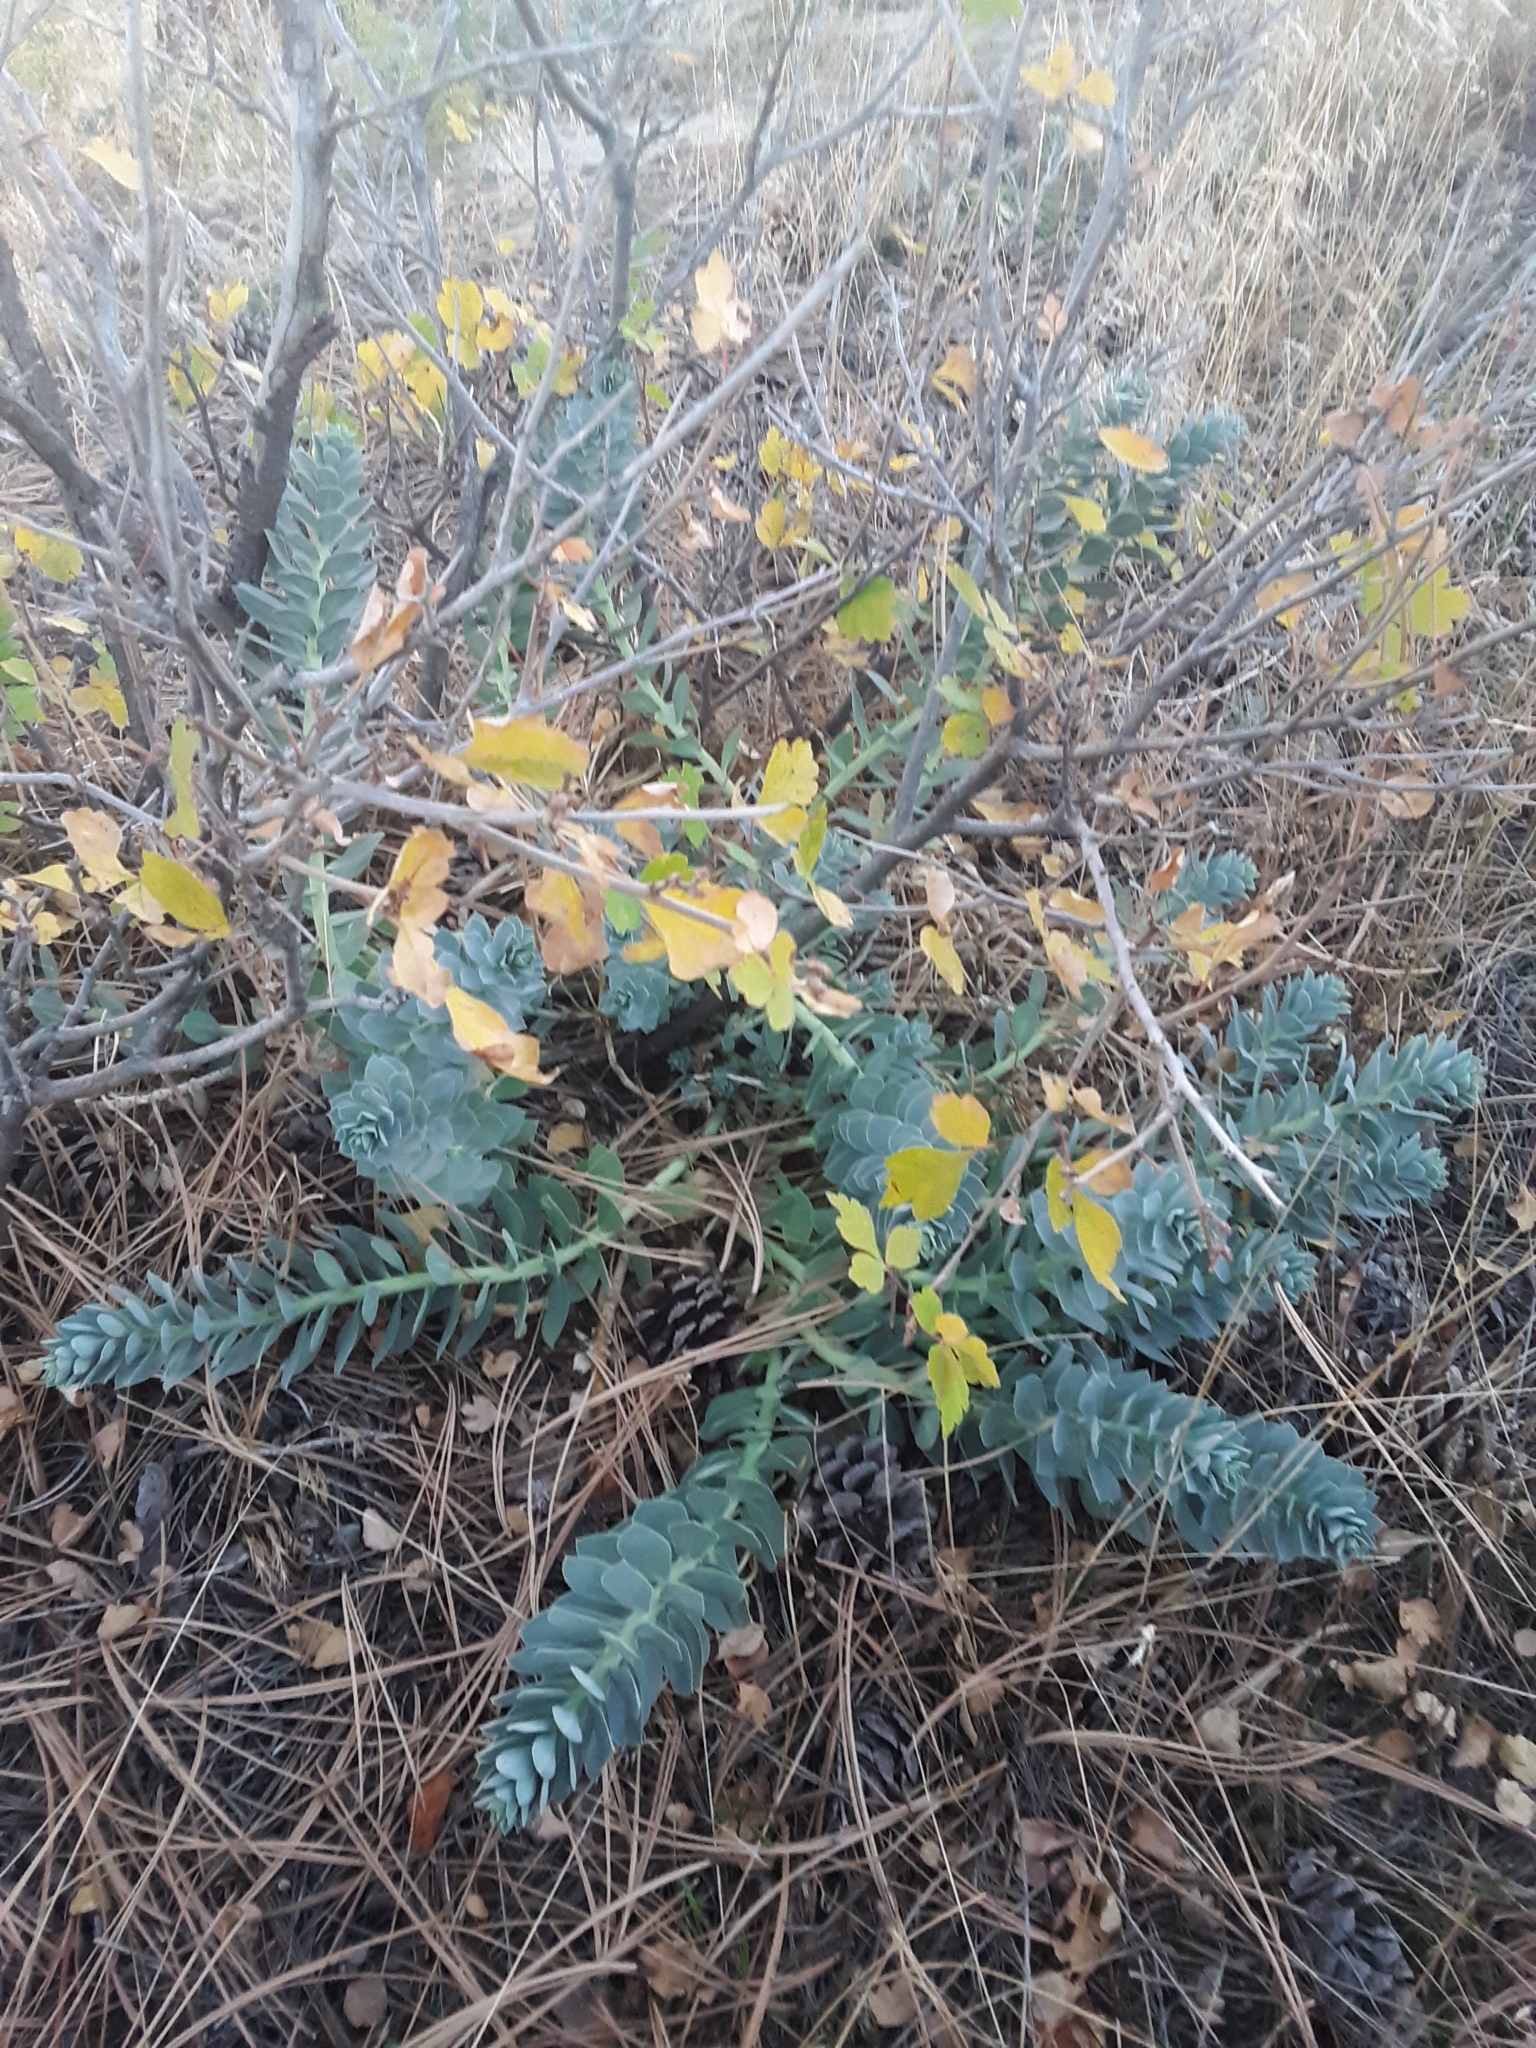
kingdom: Plantae
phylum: Tracheophyta
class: Magnoliopsida
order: Lamiales
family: Plantaginaceae
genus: Linaria
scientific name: Linaria dalmatica
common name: Dalmatian toadflax
